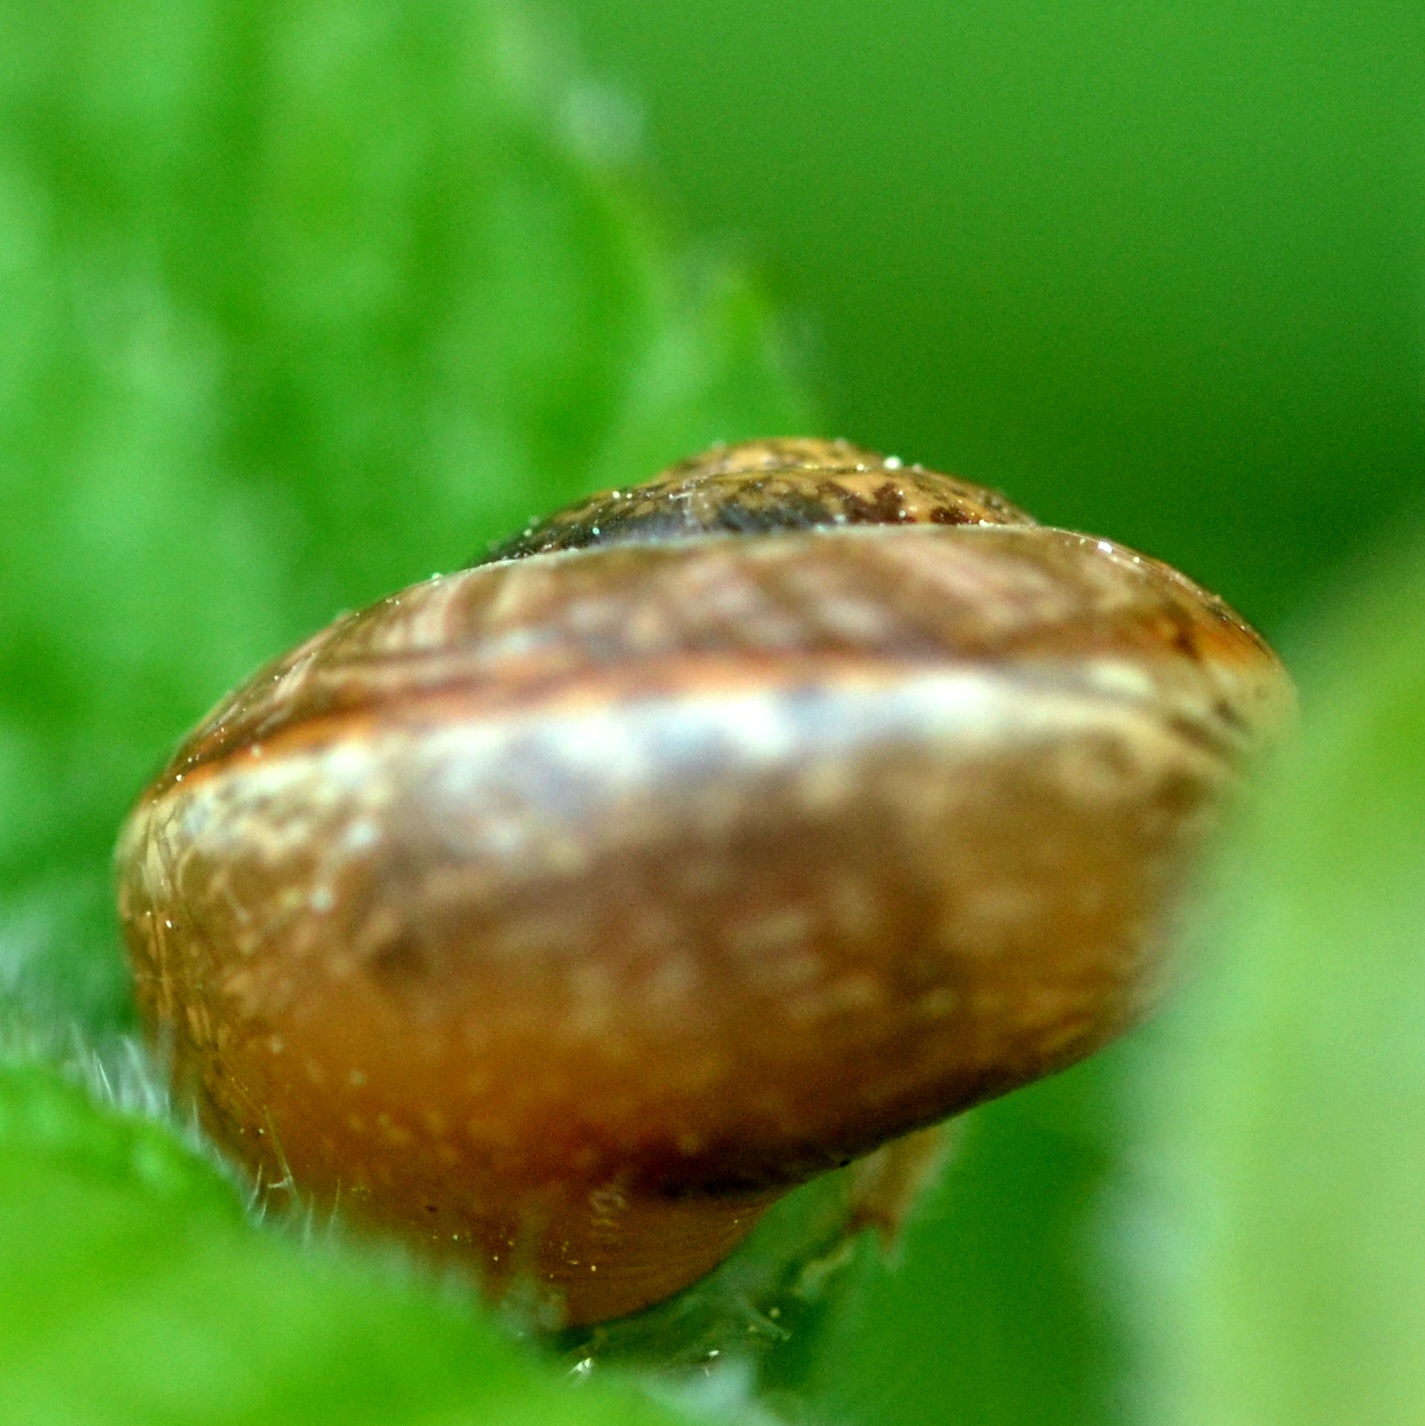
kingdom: Animalia
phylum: Mollusca
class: Gastropoda
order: Stylommatophora
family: Helicidae
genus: Arianta
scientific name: Arianta arbustorum
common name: Copse snail
